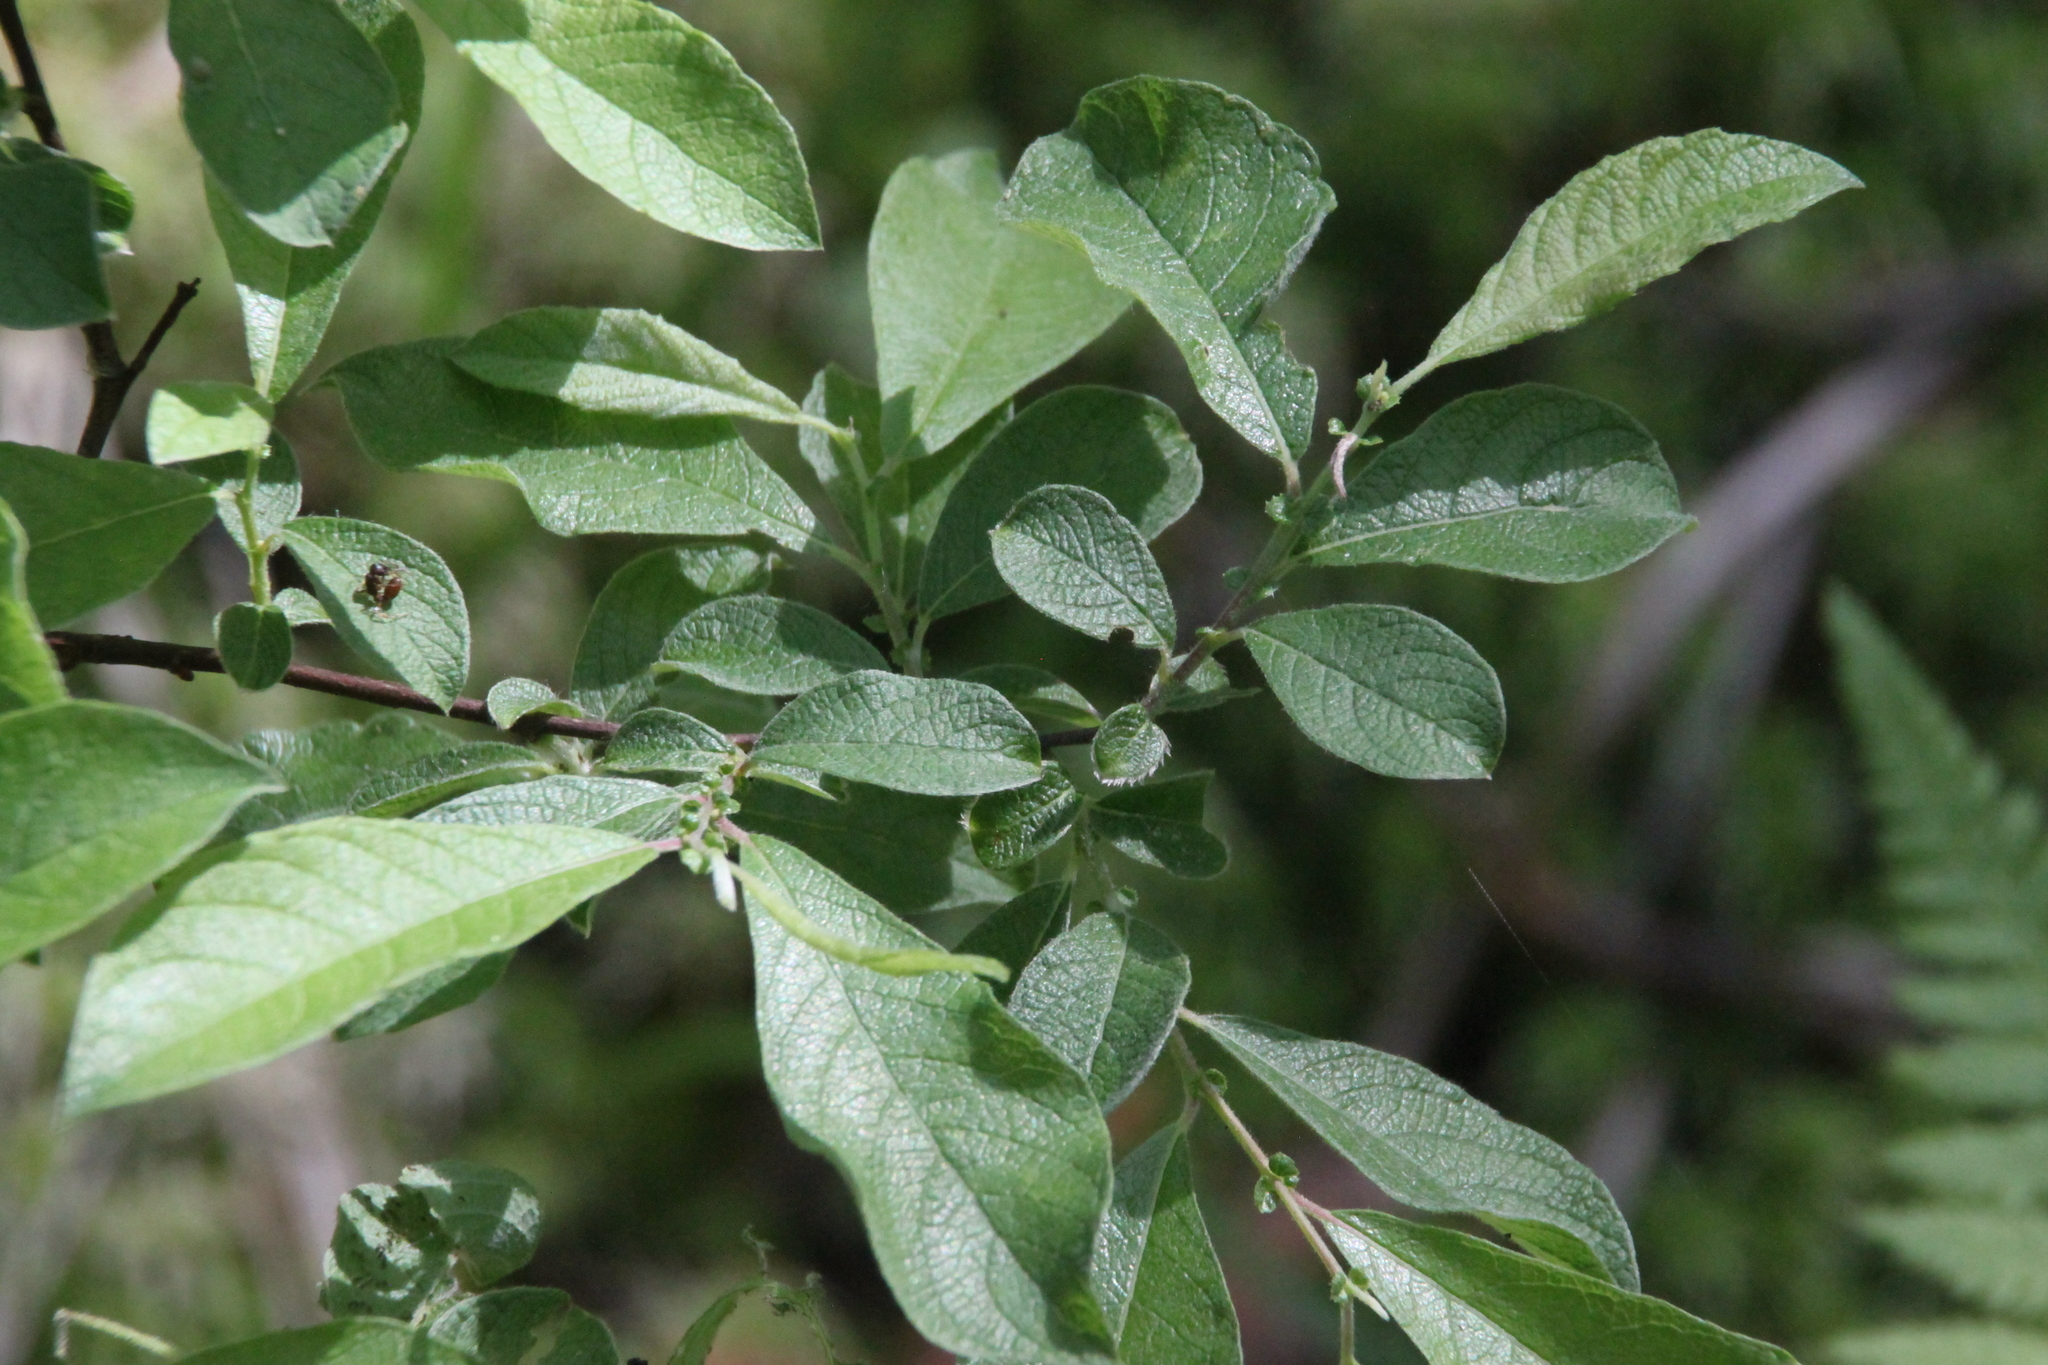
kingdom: Plantae
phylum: Tracheophyta
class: Magnoliopsida
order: Malpighiales
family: Salicaceae
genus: Salix
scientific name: Salix aurita
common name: Eared willow
